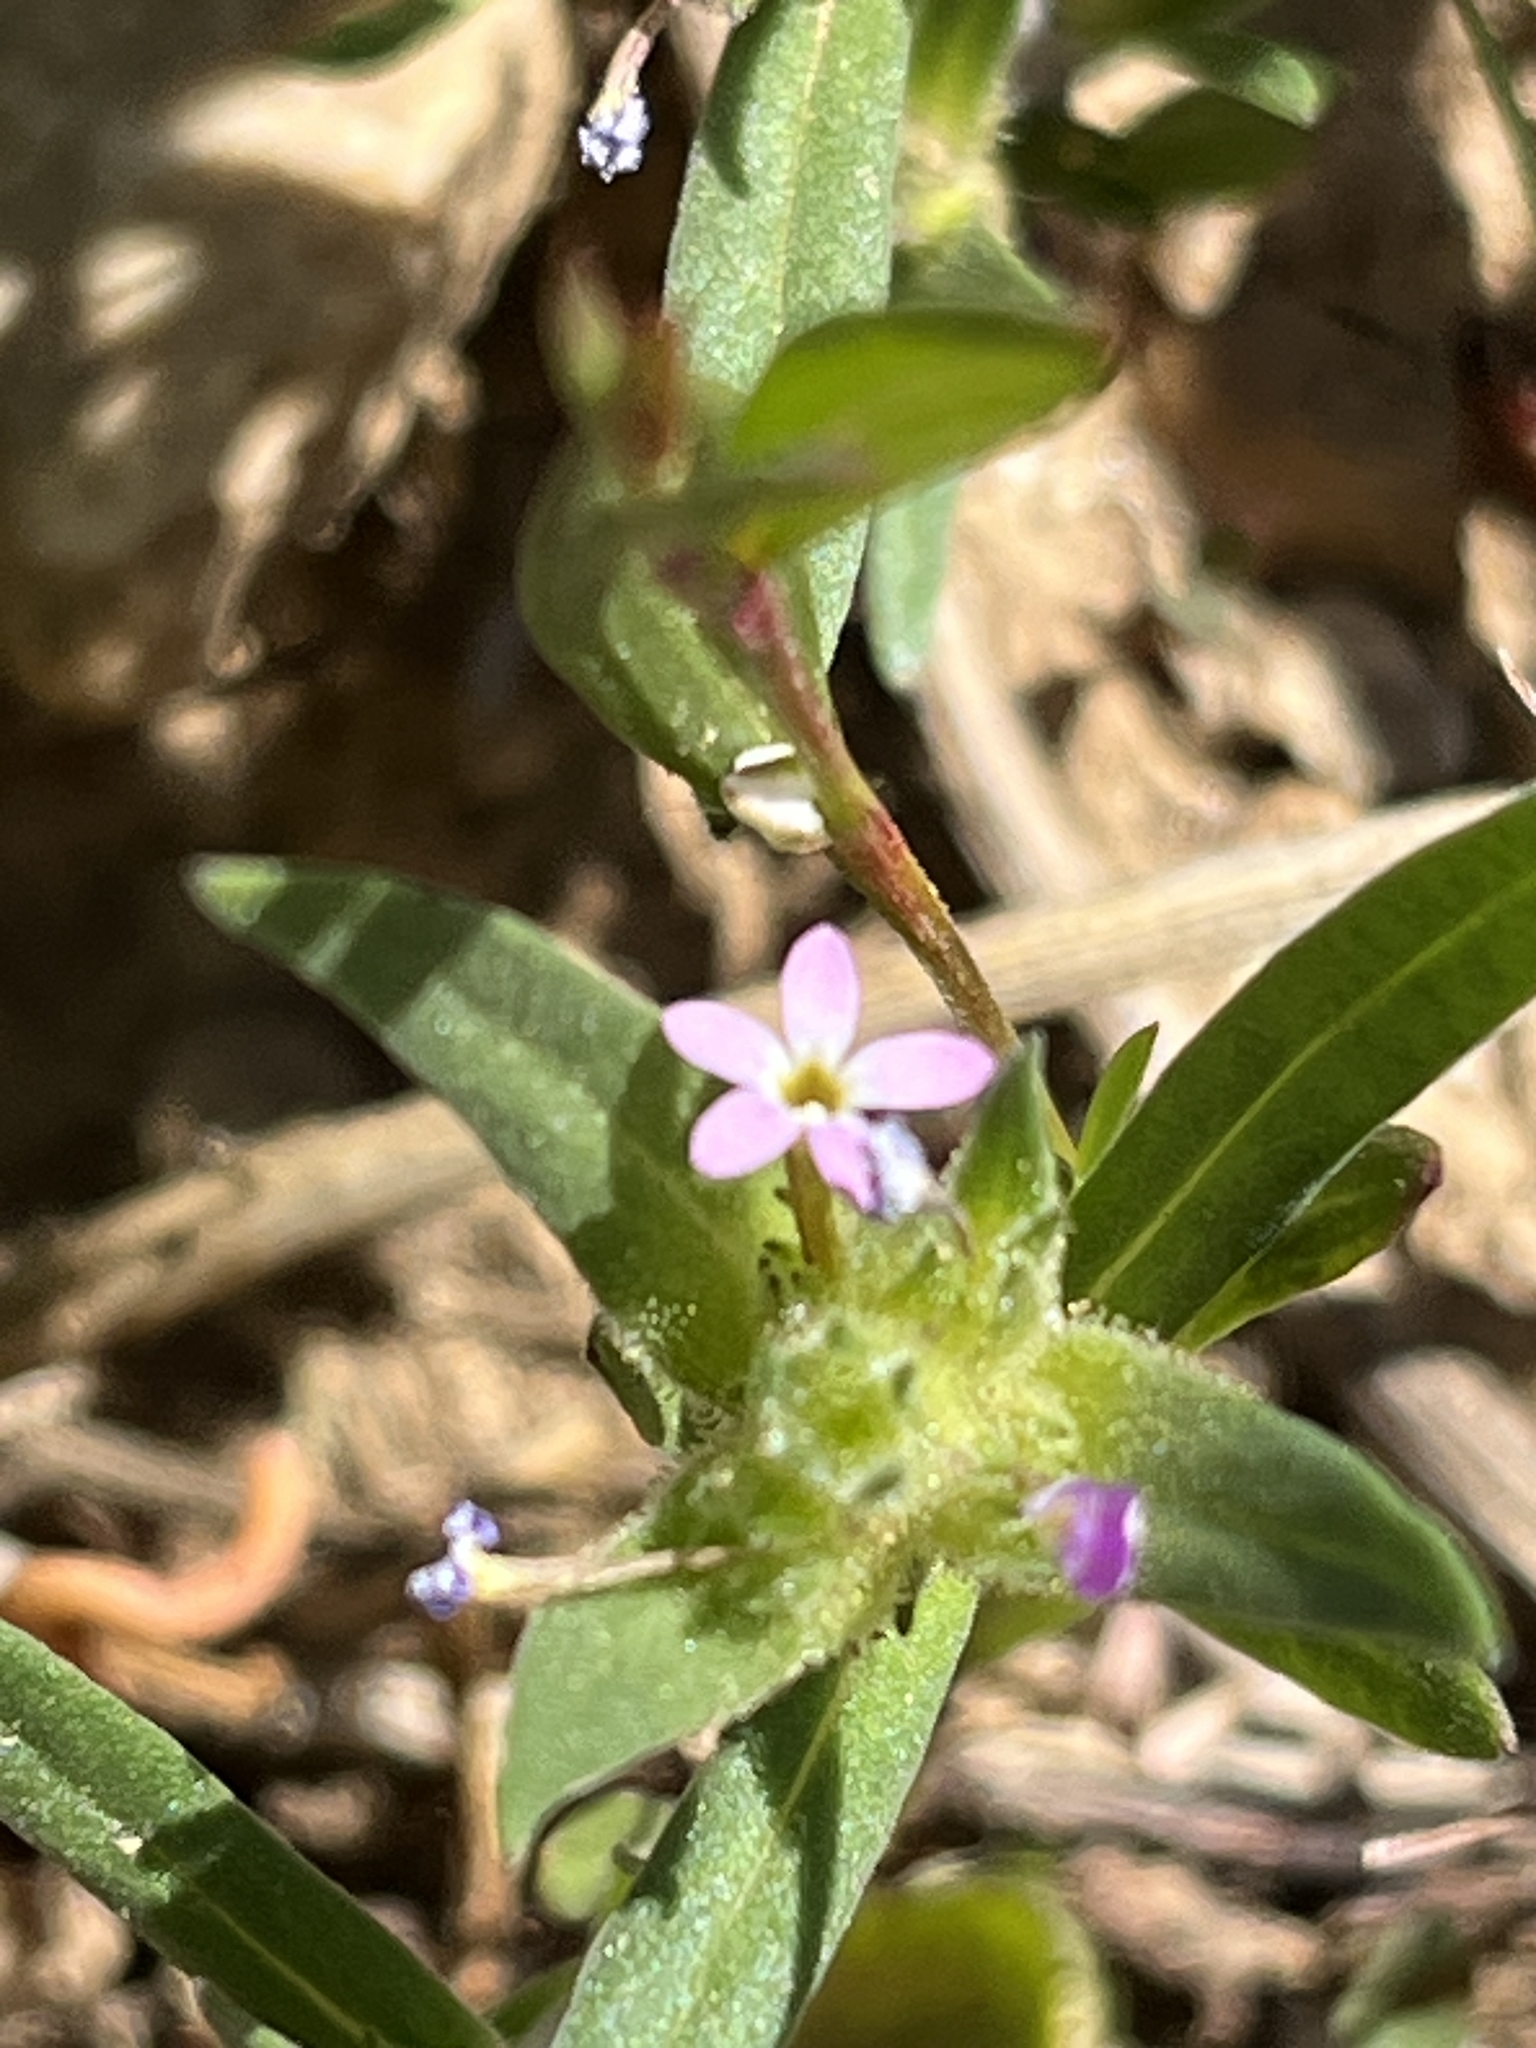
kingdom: Plantae
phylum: Tracheophyta
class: Magnoliopsida
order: Ericales
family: Polemoniaceae
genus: Collomia
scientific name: Collomia linearis
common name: Tiny trumpet
